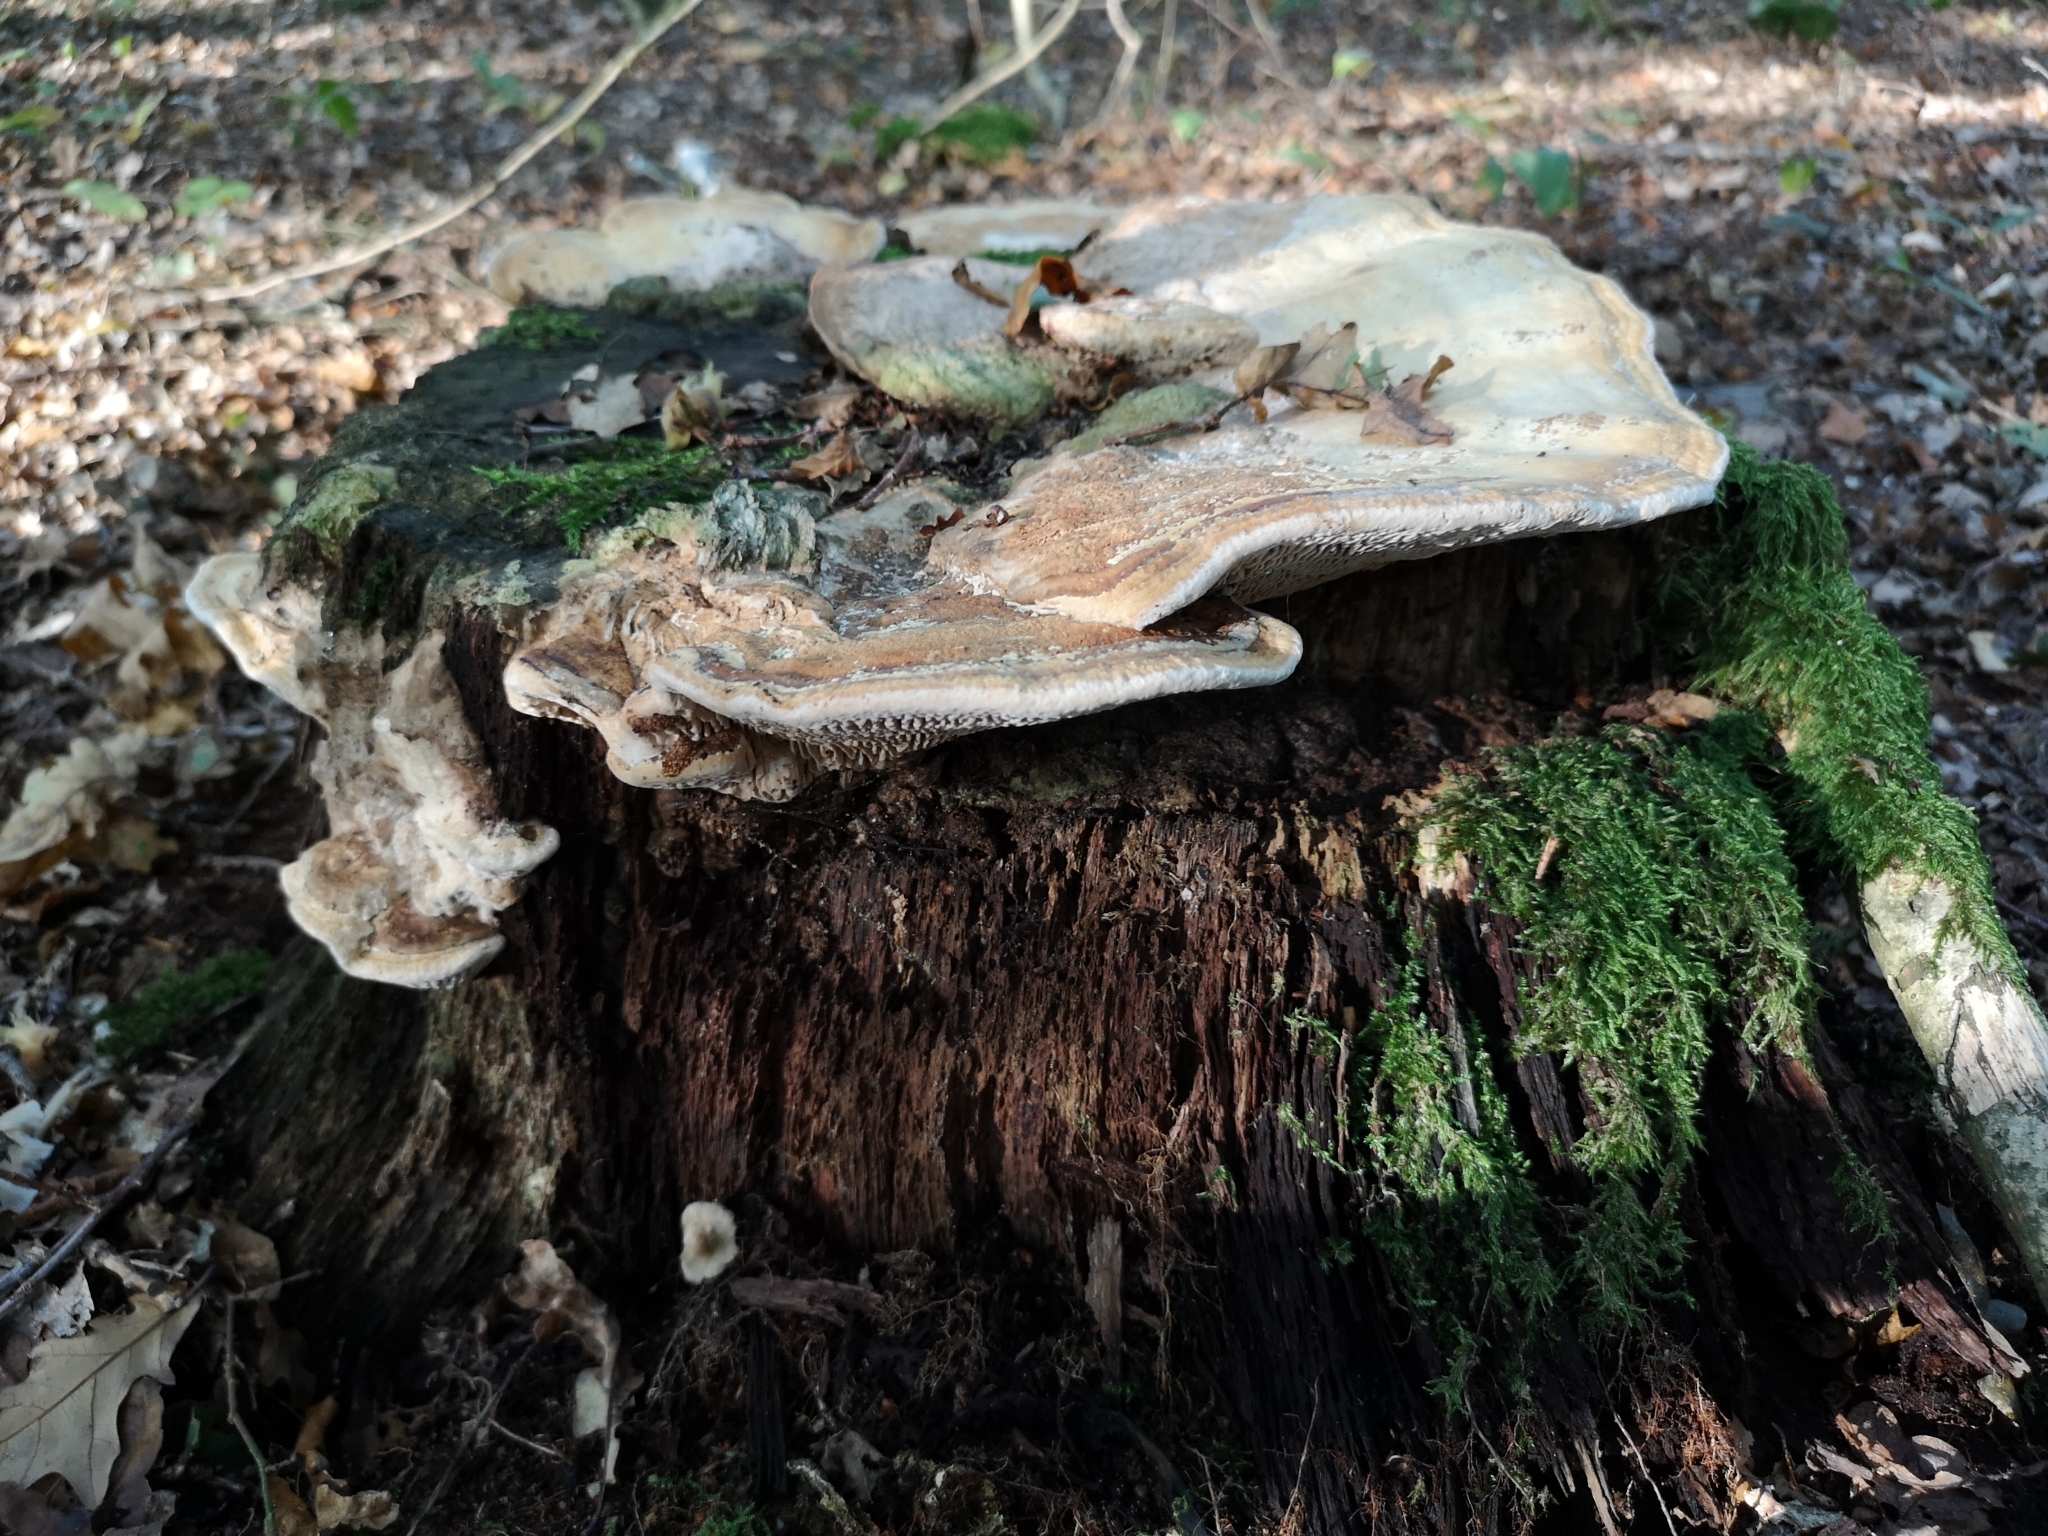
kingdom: Fungi
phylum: Basidiomycota
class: Agaricomycetes
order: Polyporales
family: Fomitopsidaceae
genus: Fomitopsis
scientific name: Fomitopsis
